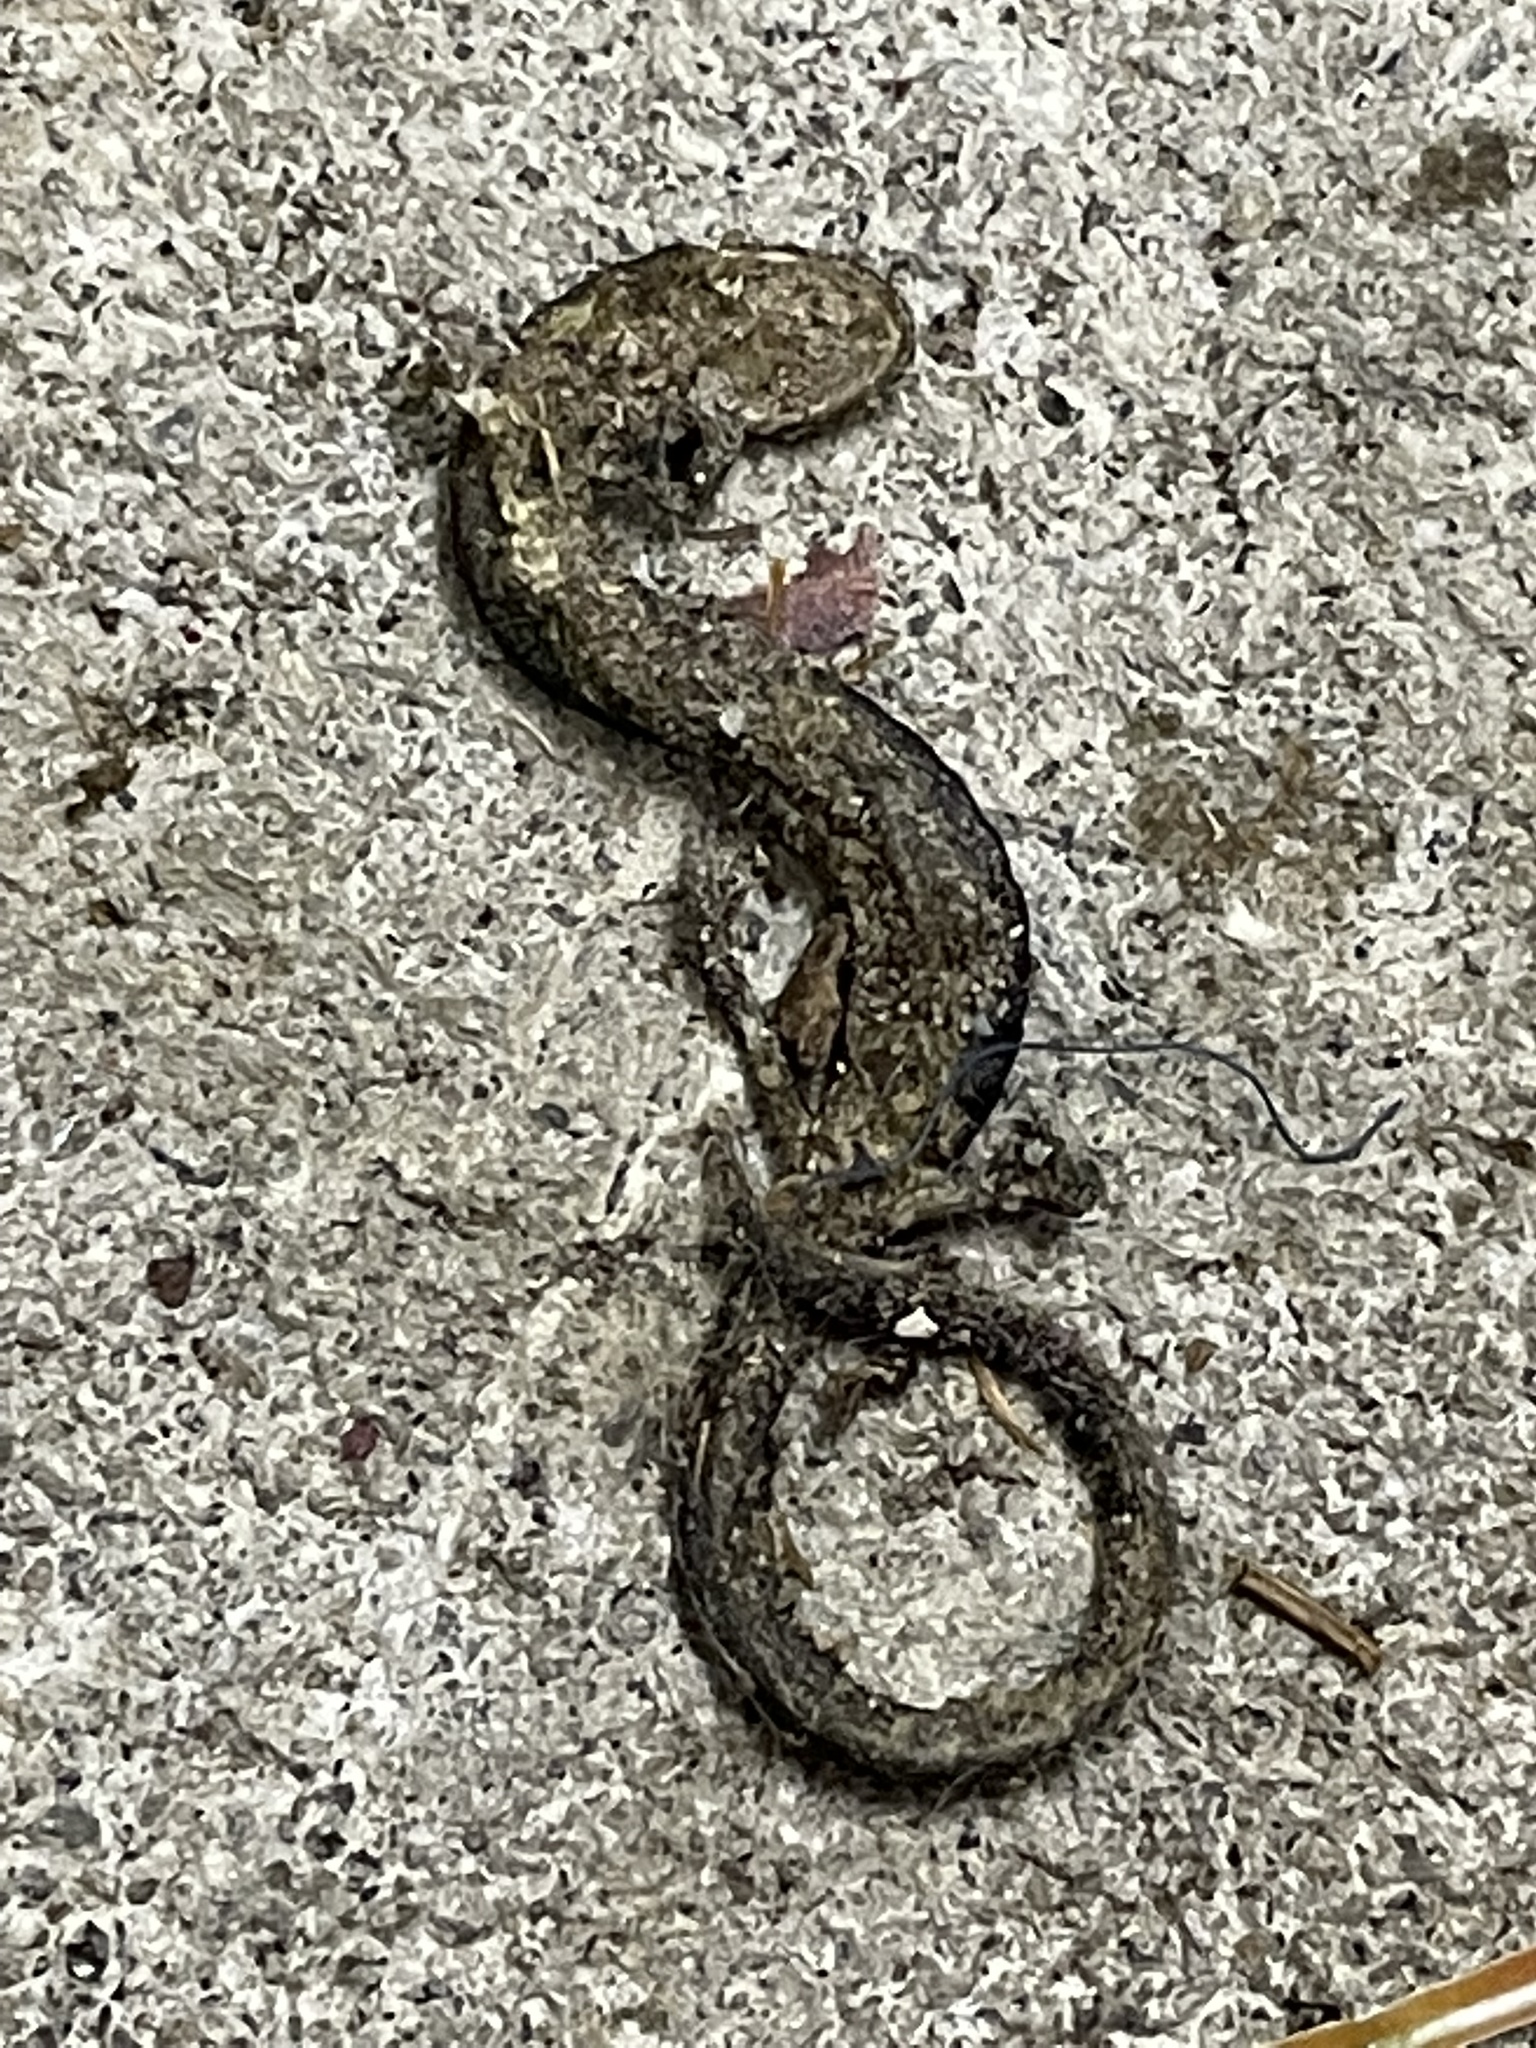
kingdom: Animalia
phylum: Chordata
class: Amphibia
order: Caudata
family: Plethodontidae
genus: Plethodon
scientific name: Plethodon cinereus
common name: Redback salamander
